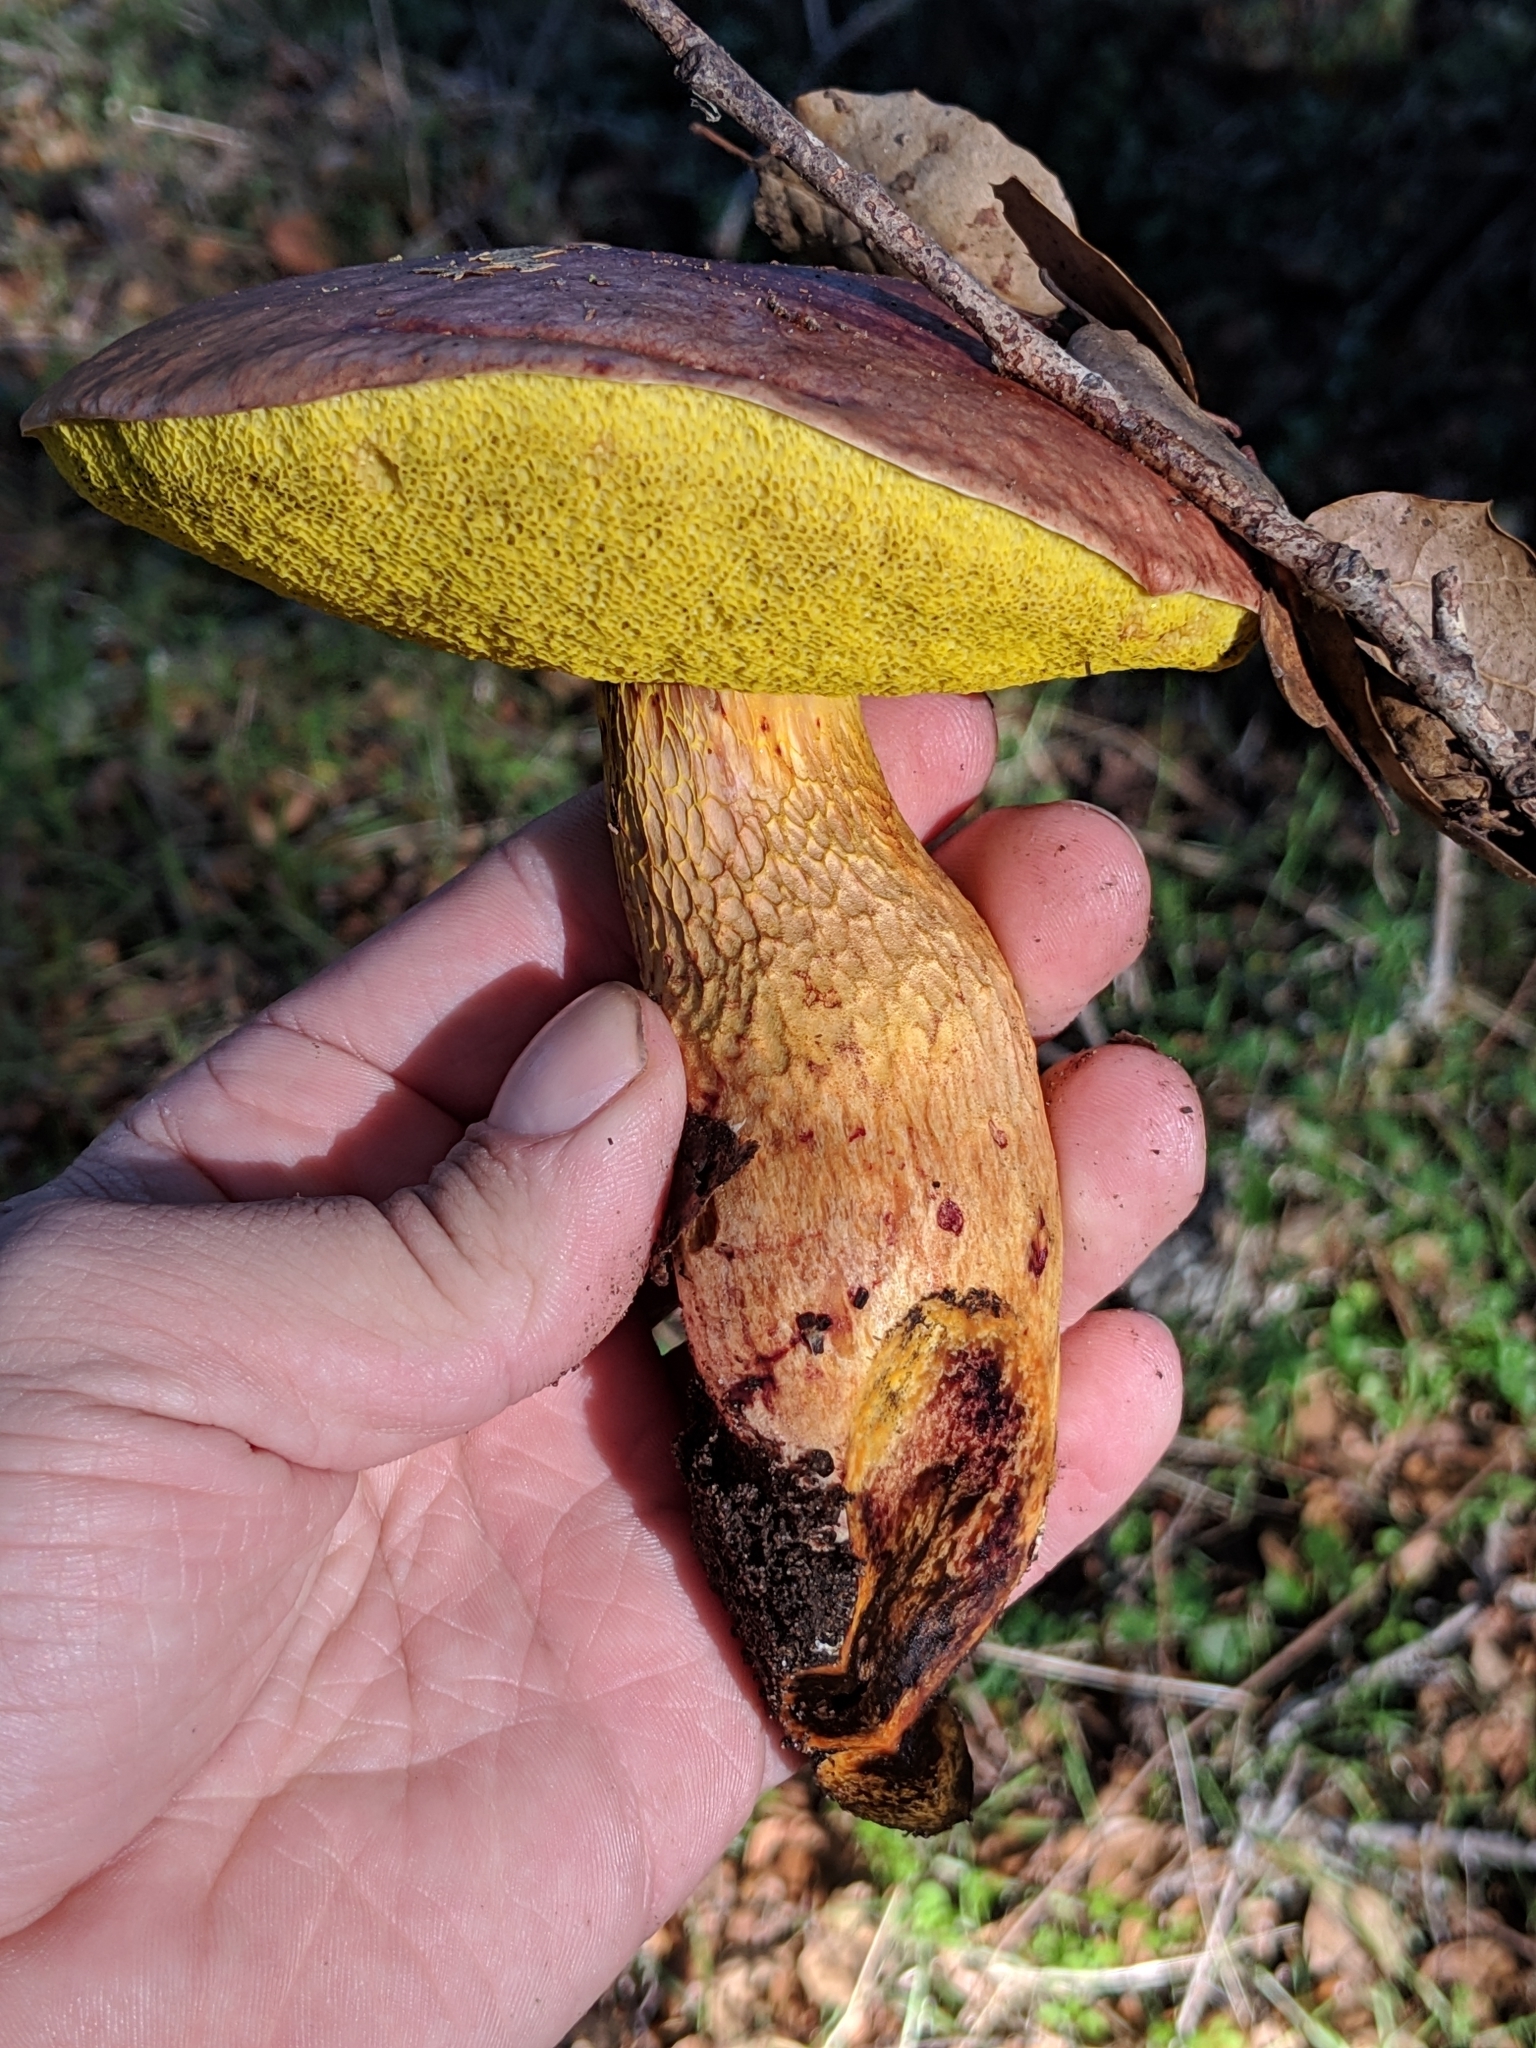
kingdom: Fungi
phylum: Basidiomycota
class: Agaricomycetes
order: Boletales
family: Boletaceae
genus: Aureoboletus
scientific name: Aureoboletus flaviporus
